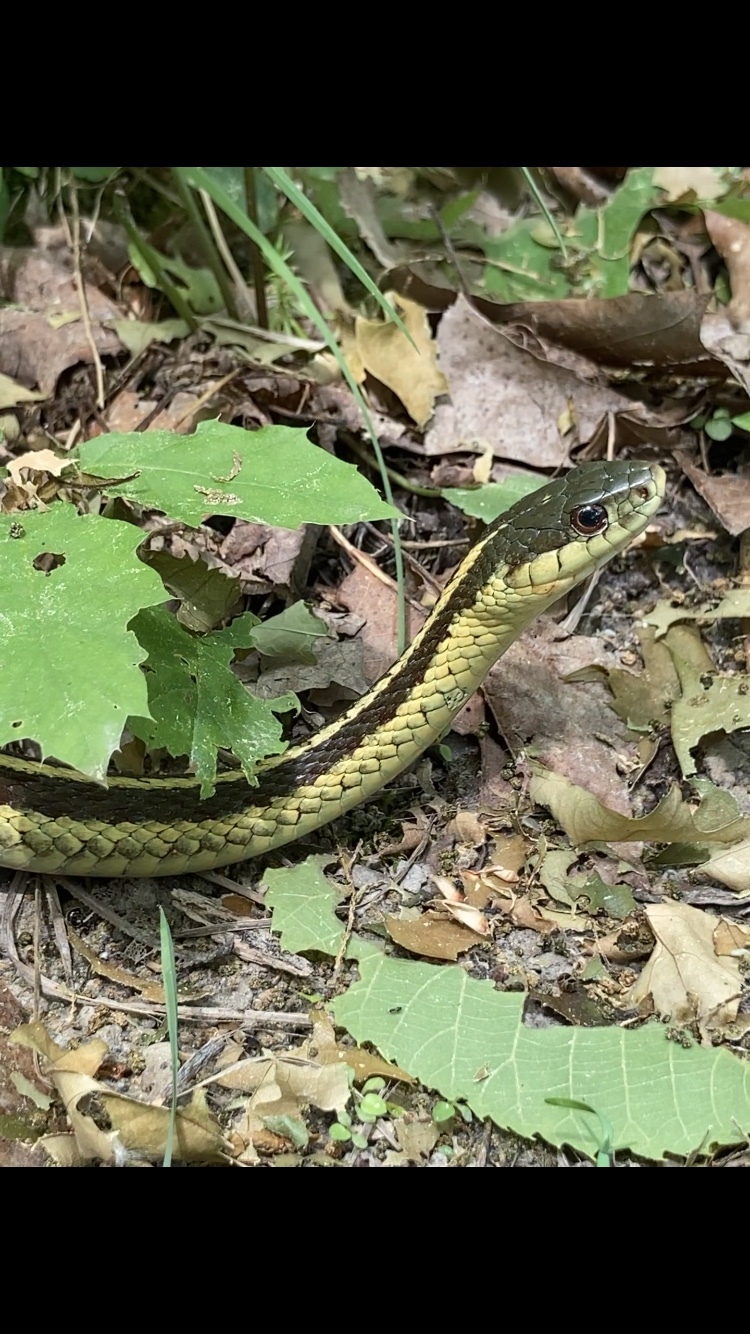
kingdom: Animalia
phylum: Chordata
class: Squamata
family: Colubridae
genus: Thamnophis
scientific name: Thamnophis sirtalis
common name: Common garter snake
